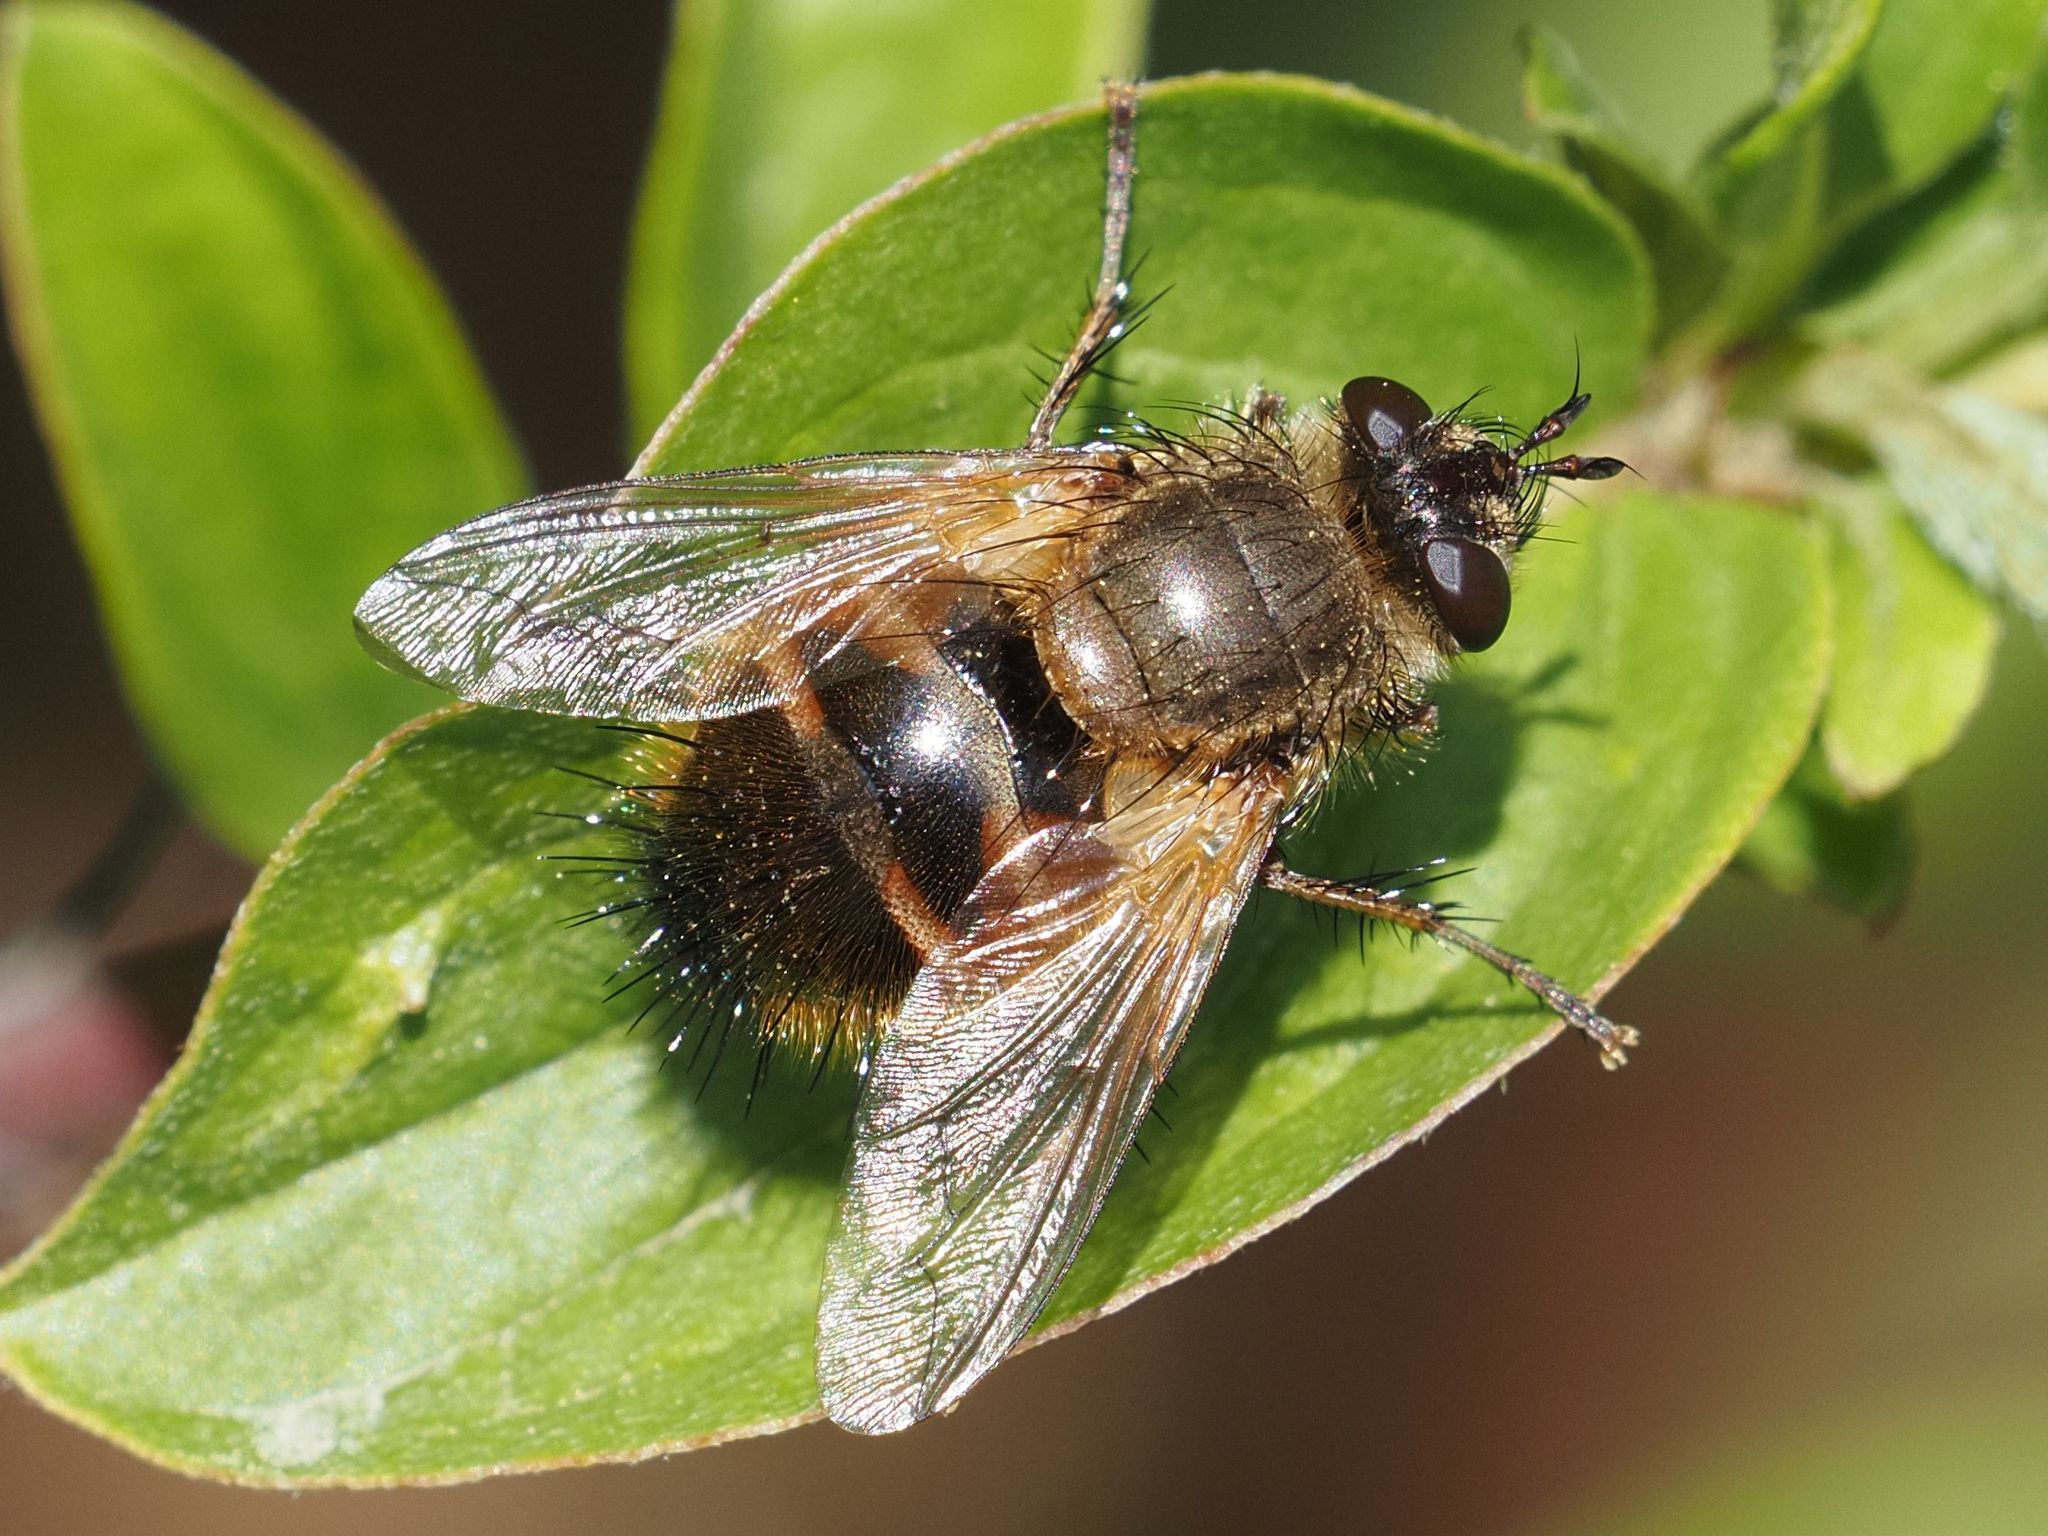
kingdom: Animalia
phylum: Arthropoda
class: Insecta
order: Diptera
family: Tachinidae
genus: Tachina
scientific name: Tachina lurida
